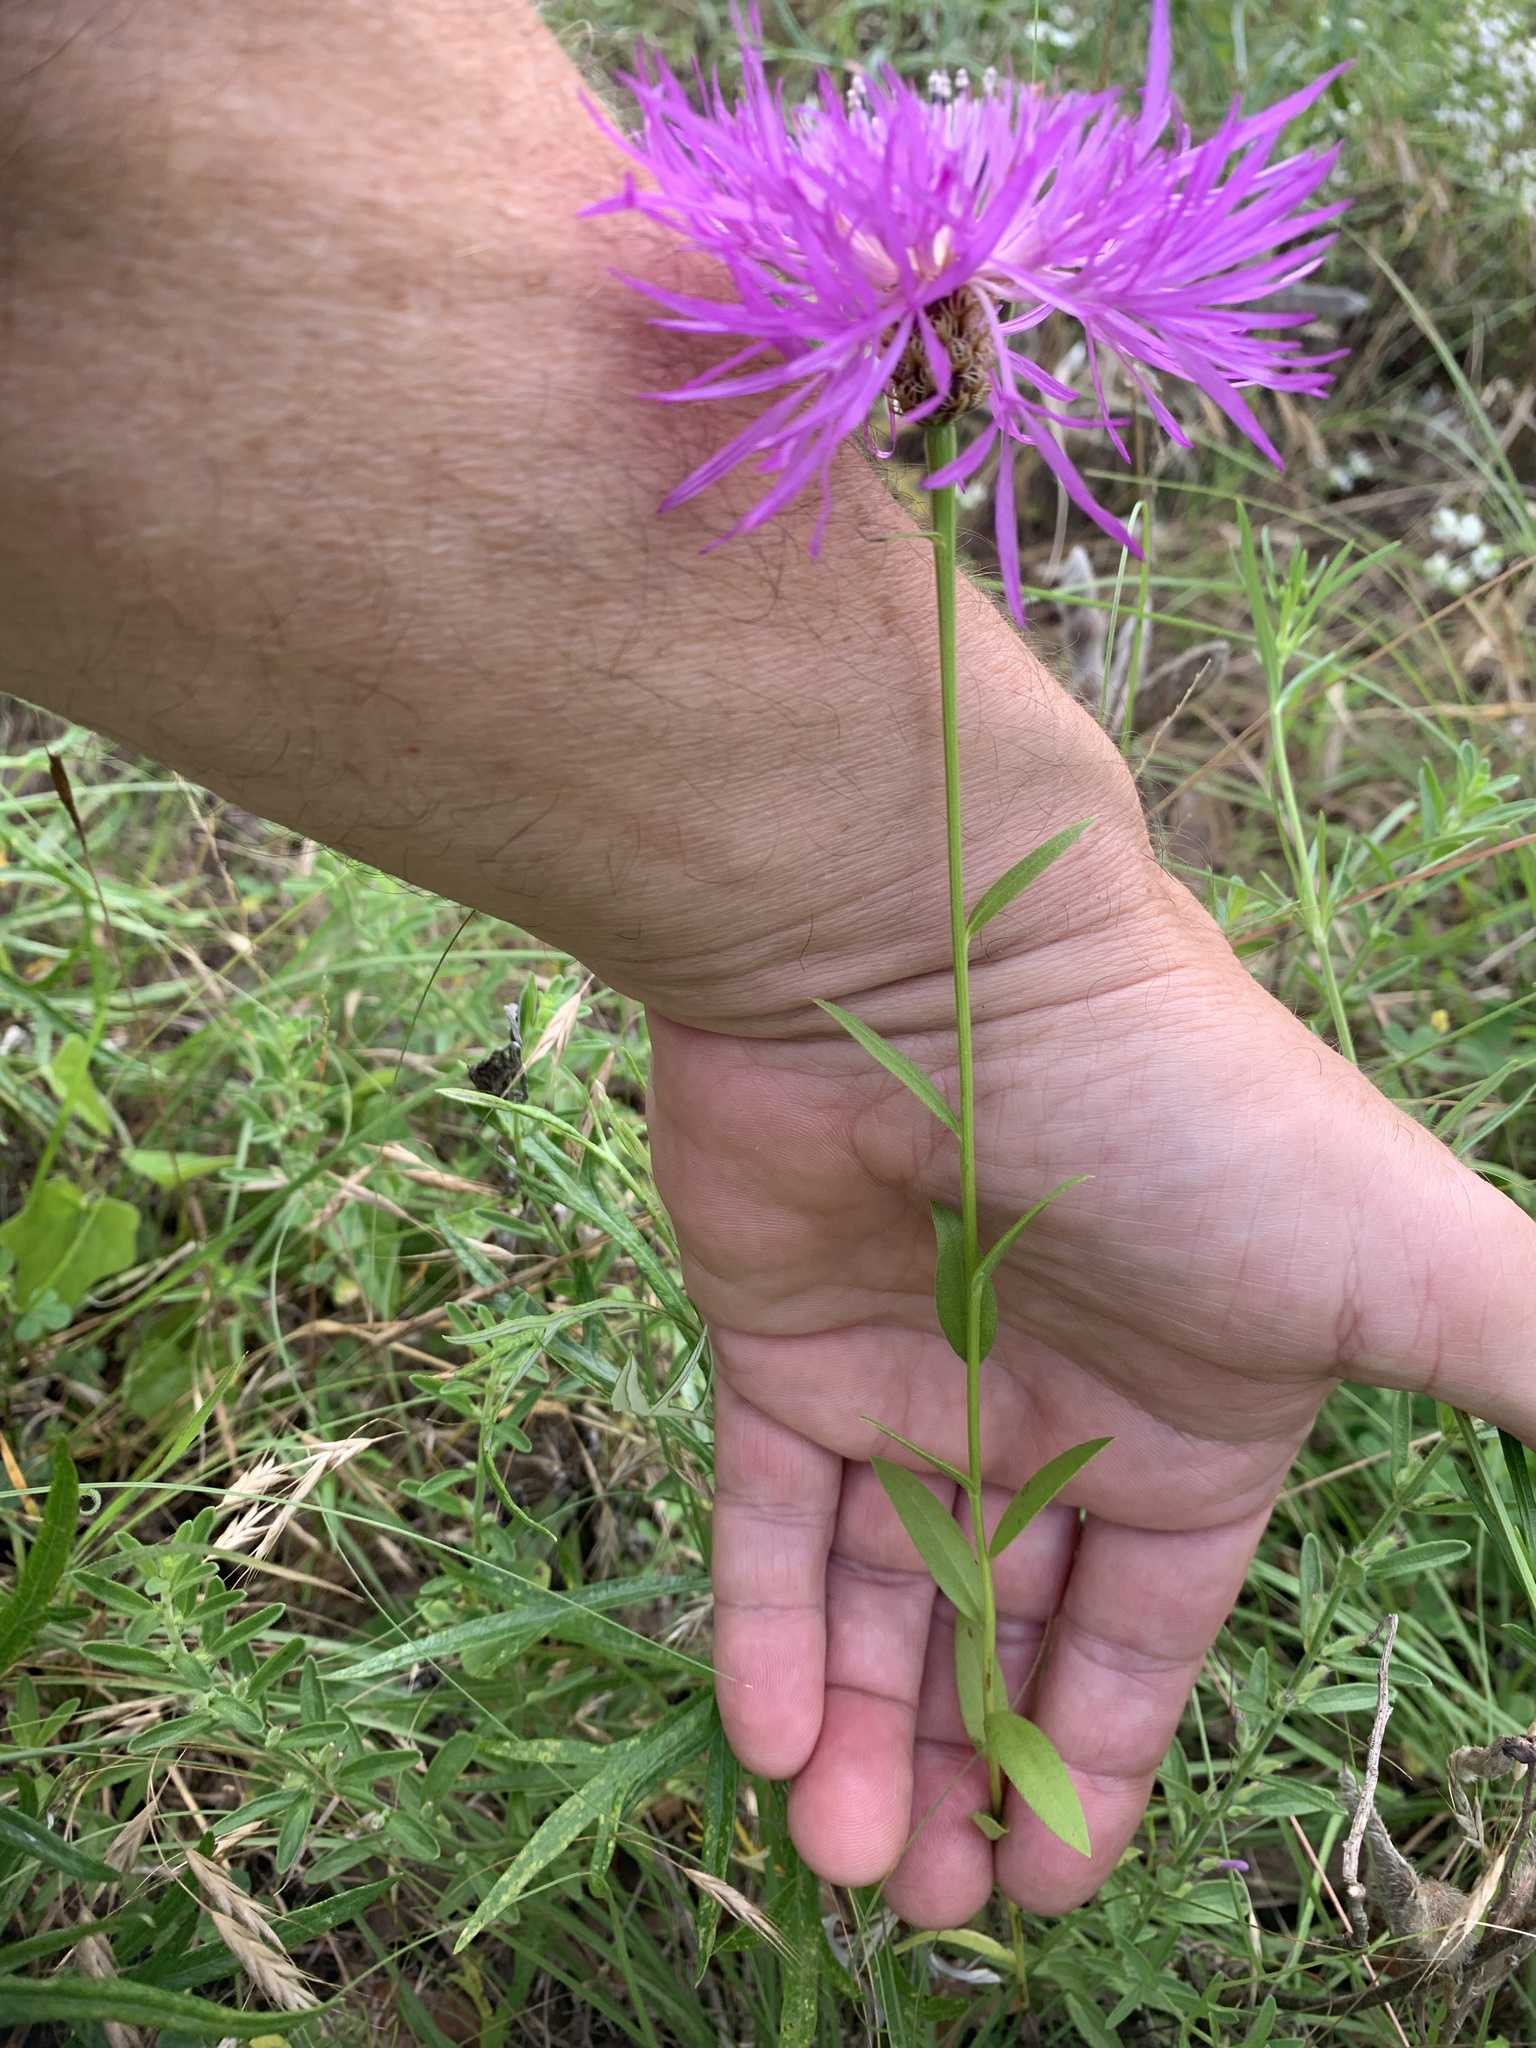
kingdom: Plantae
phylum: Tracheophyta
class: Magnoliopsida
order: Asterales
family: Asteraceae
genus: Plectocephalus
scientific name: Plectocephalus americanus
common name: American basket-flower
